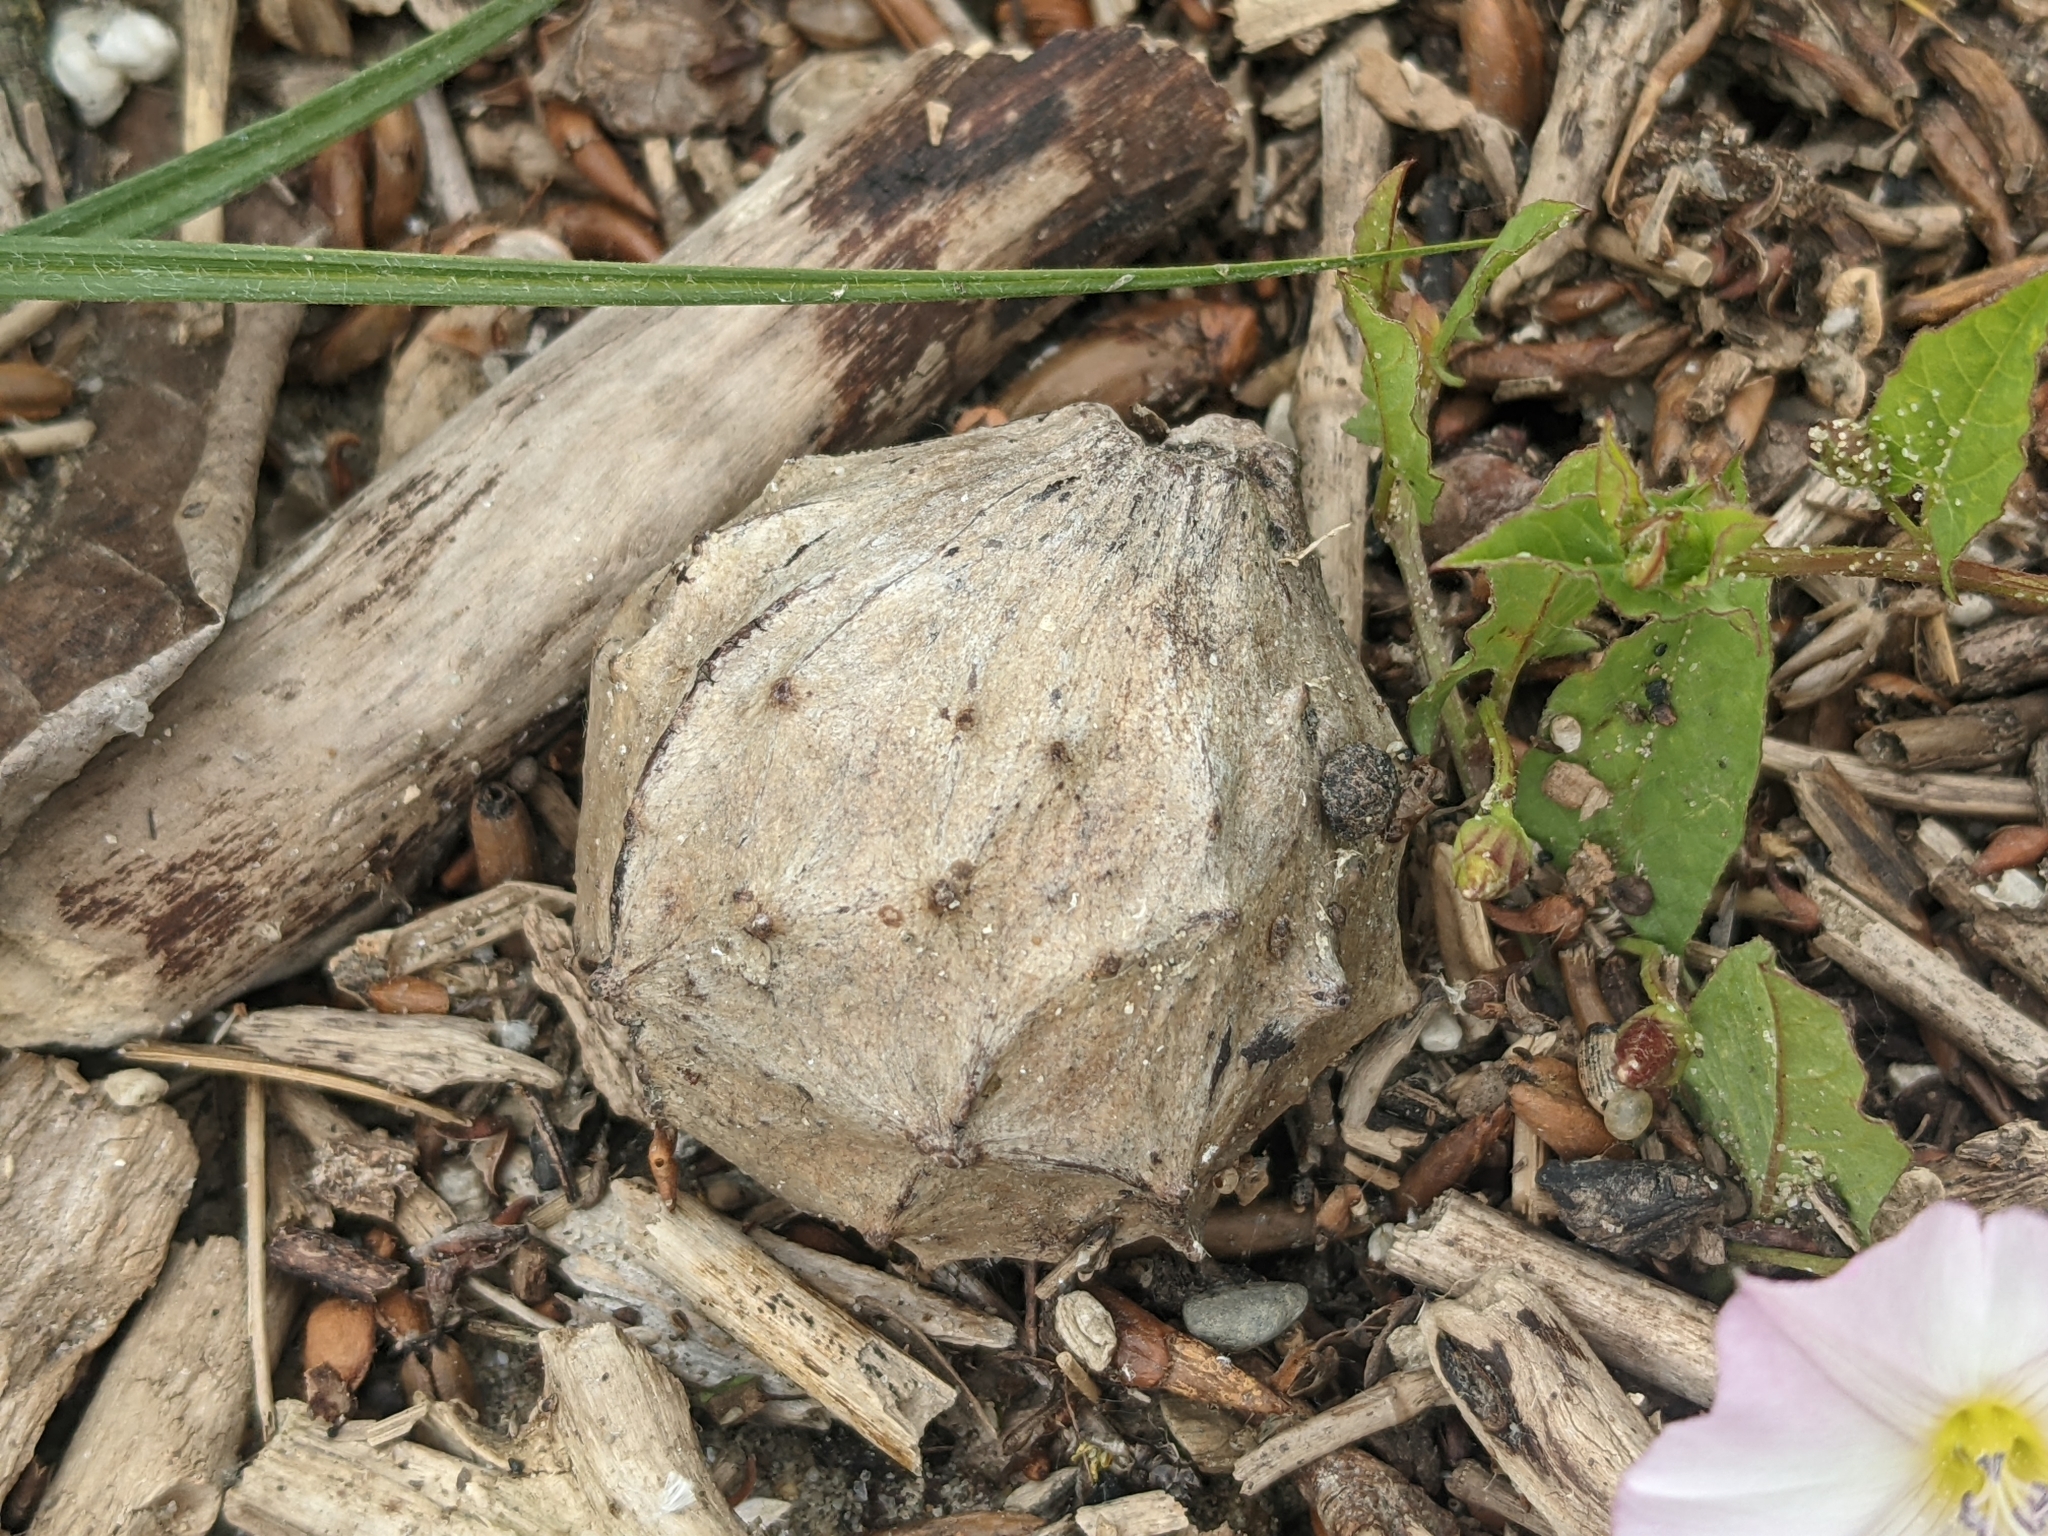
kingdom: Animalia
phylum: Arthropoda
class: Insecta
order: Hymenoptera
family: Cynipidae
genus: Andricus
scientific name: Andricus hungaricus
